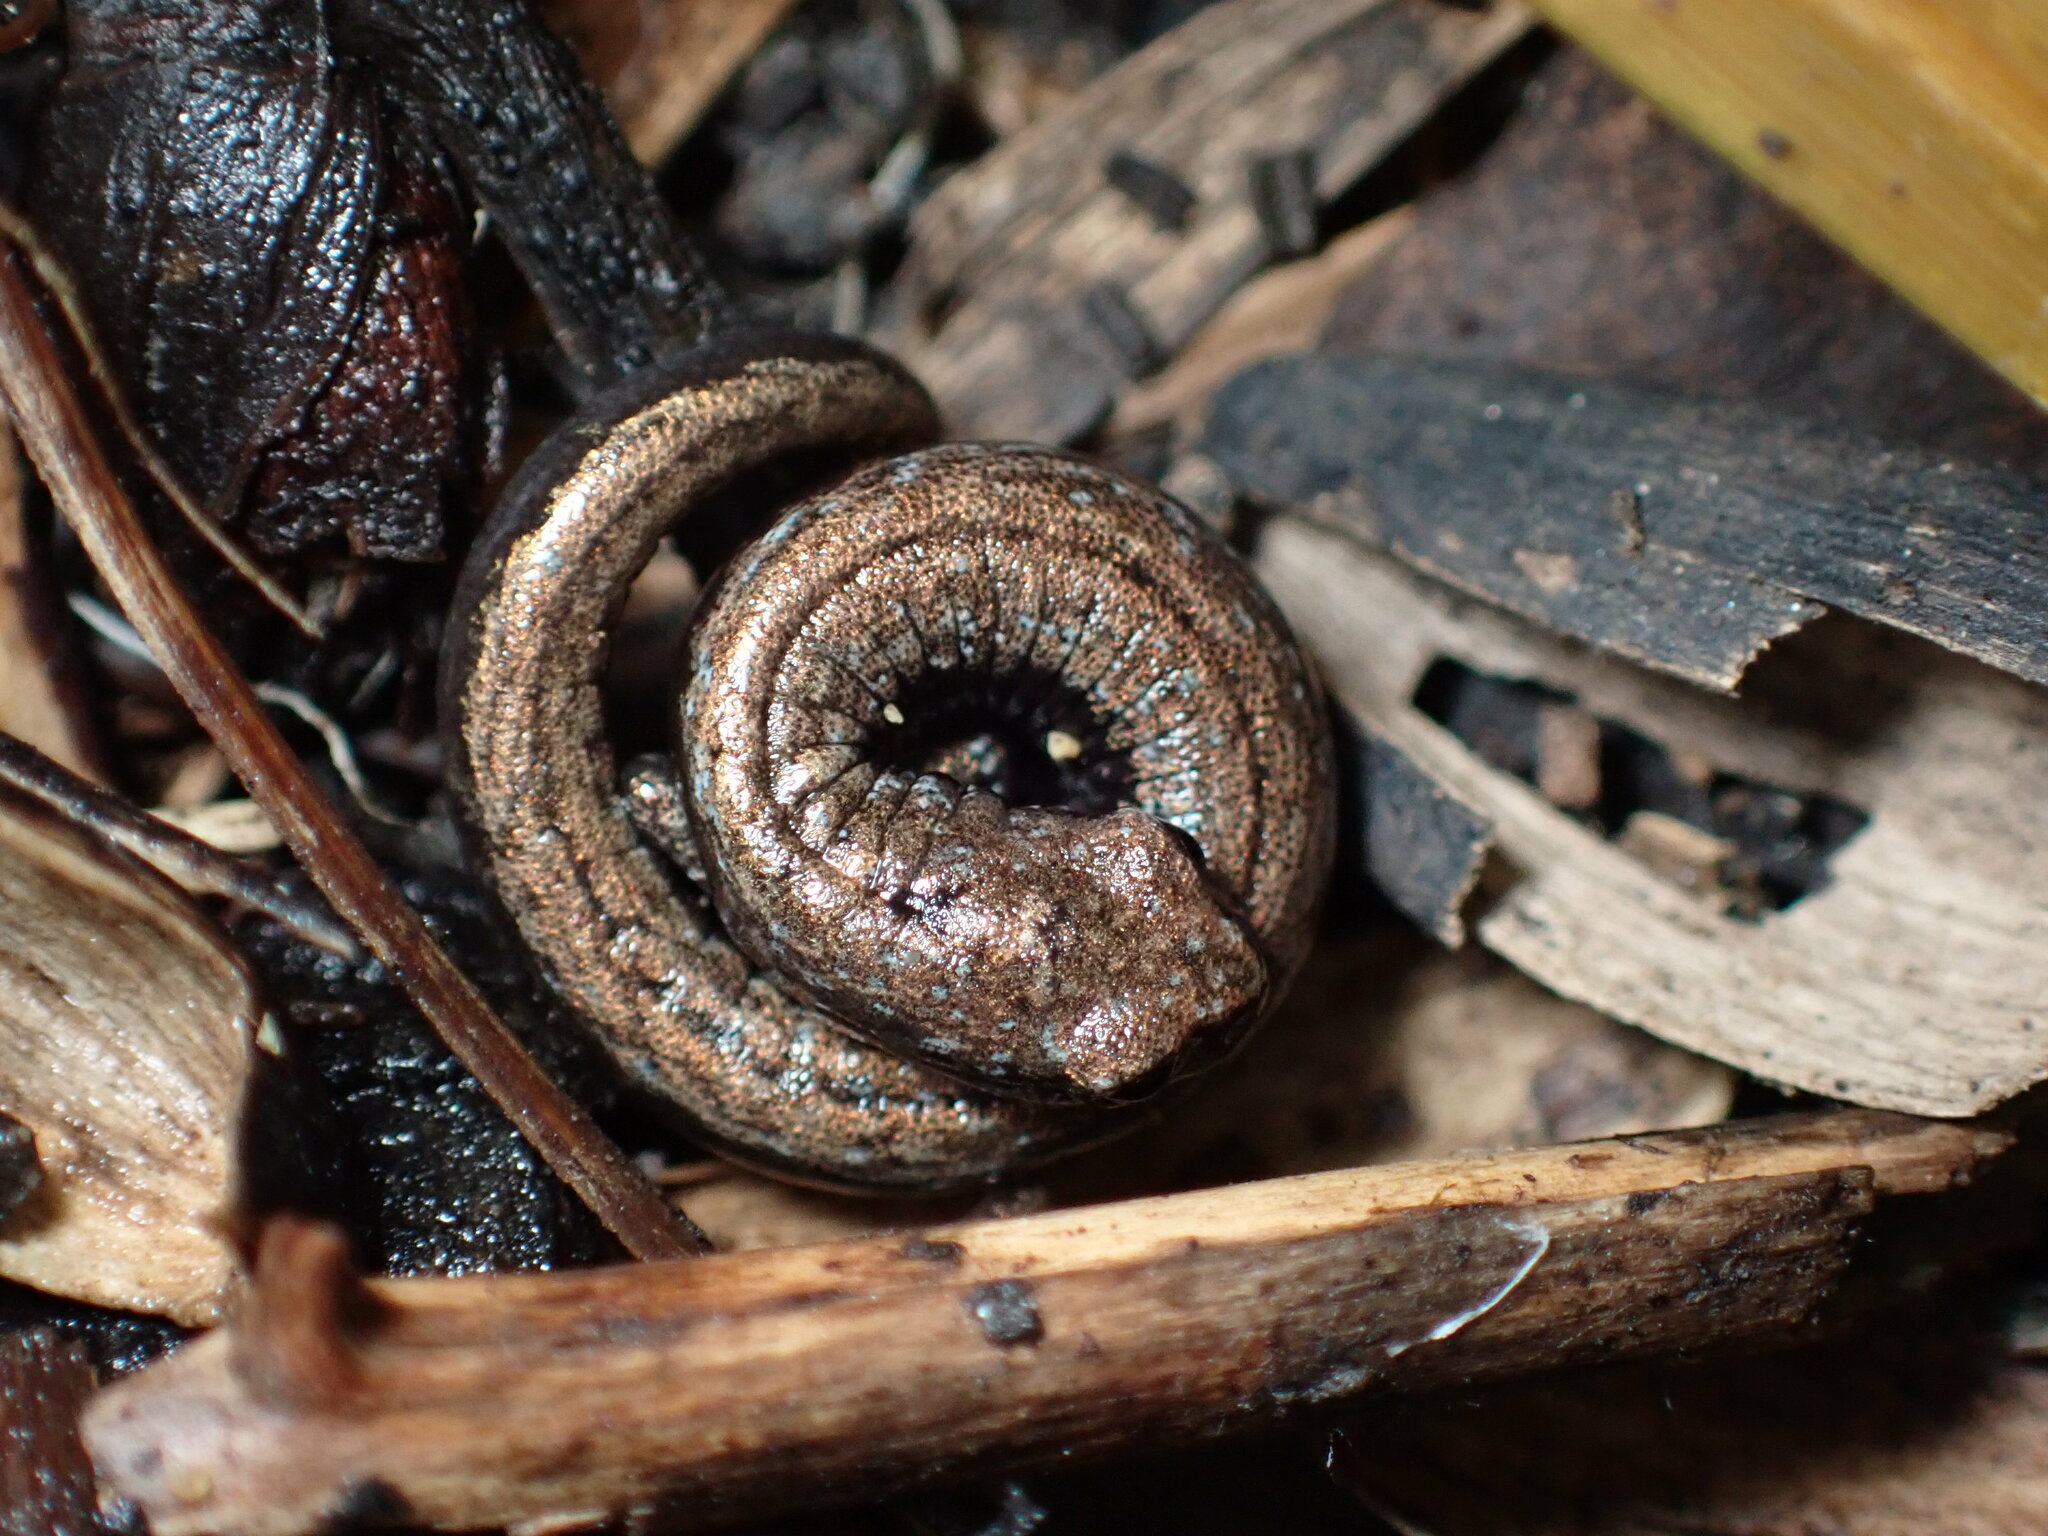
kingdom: Animalia
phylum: Chordata
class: Amphibia
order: Caudata
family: Plethodontidae
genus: Batrachoseps
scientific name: Batrachoseps attenuatus
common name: California slender salamander
